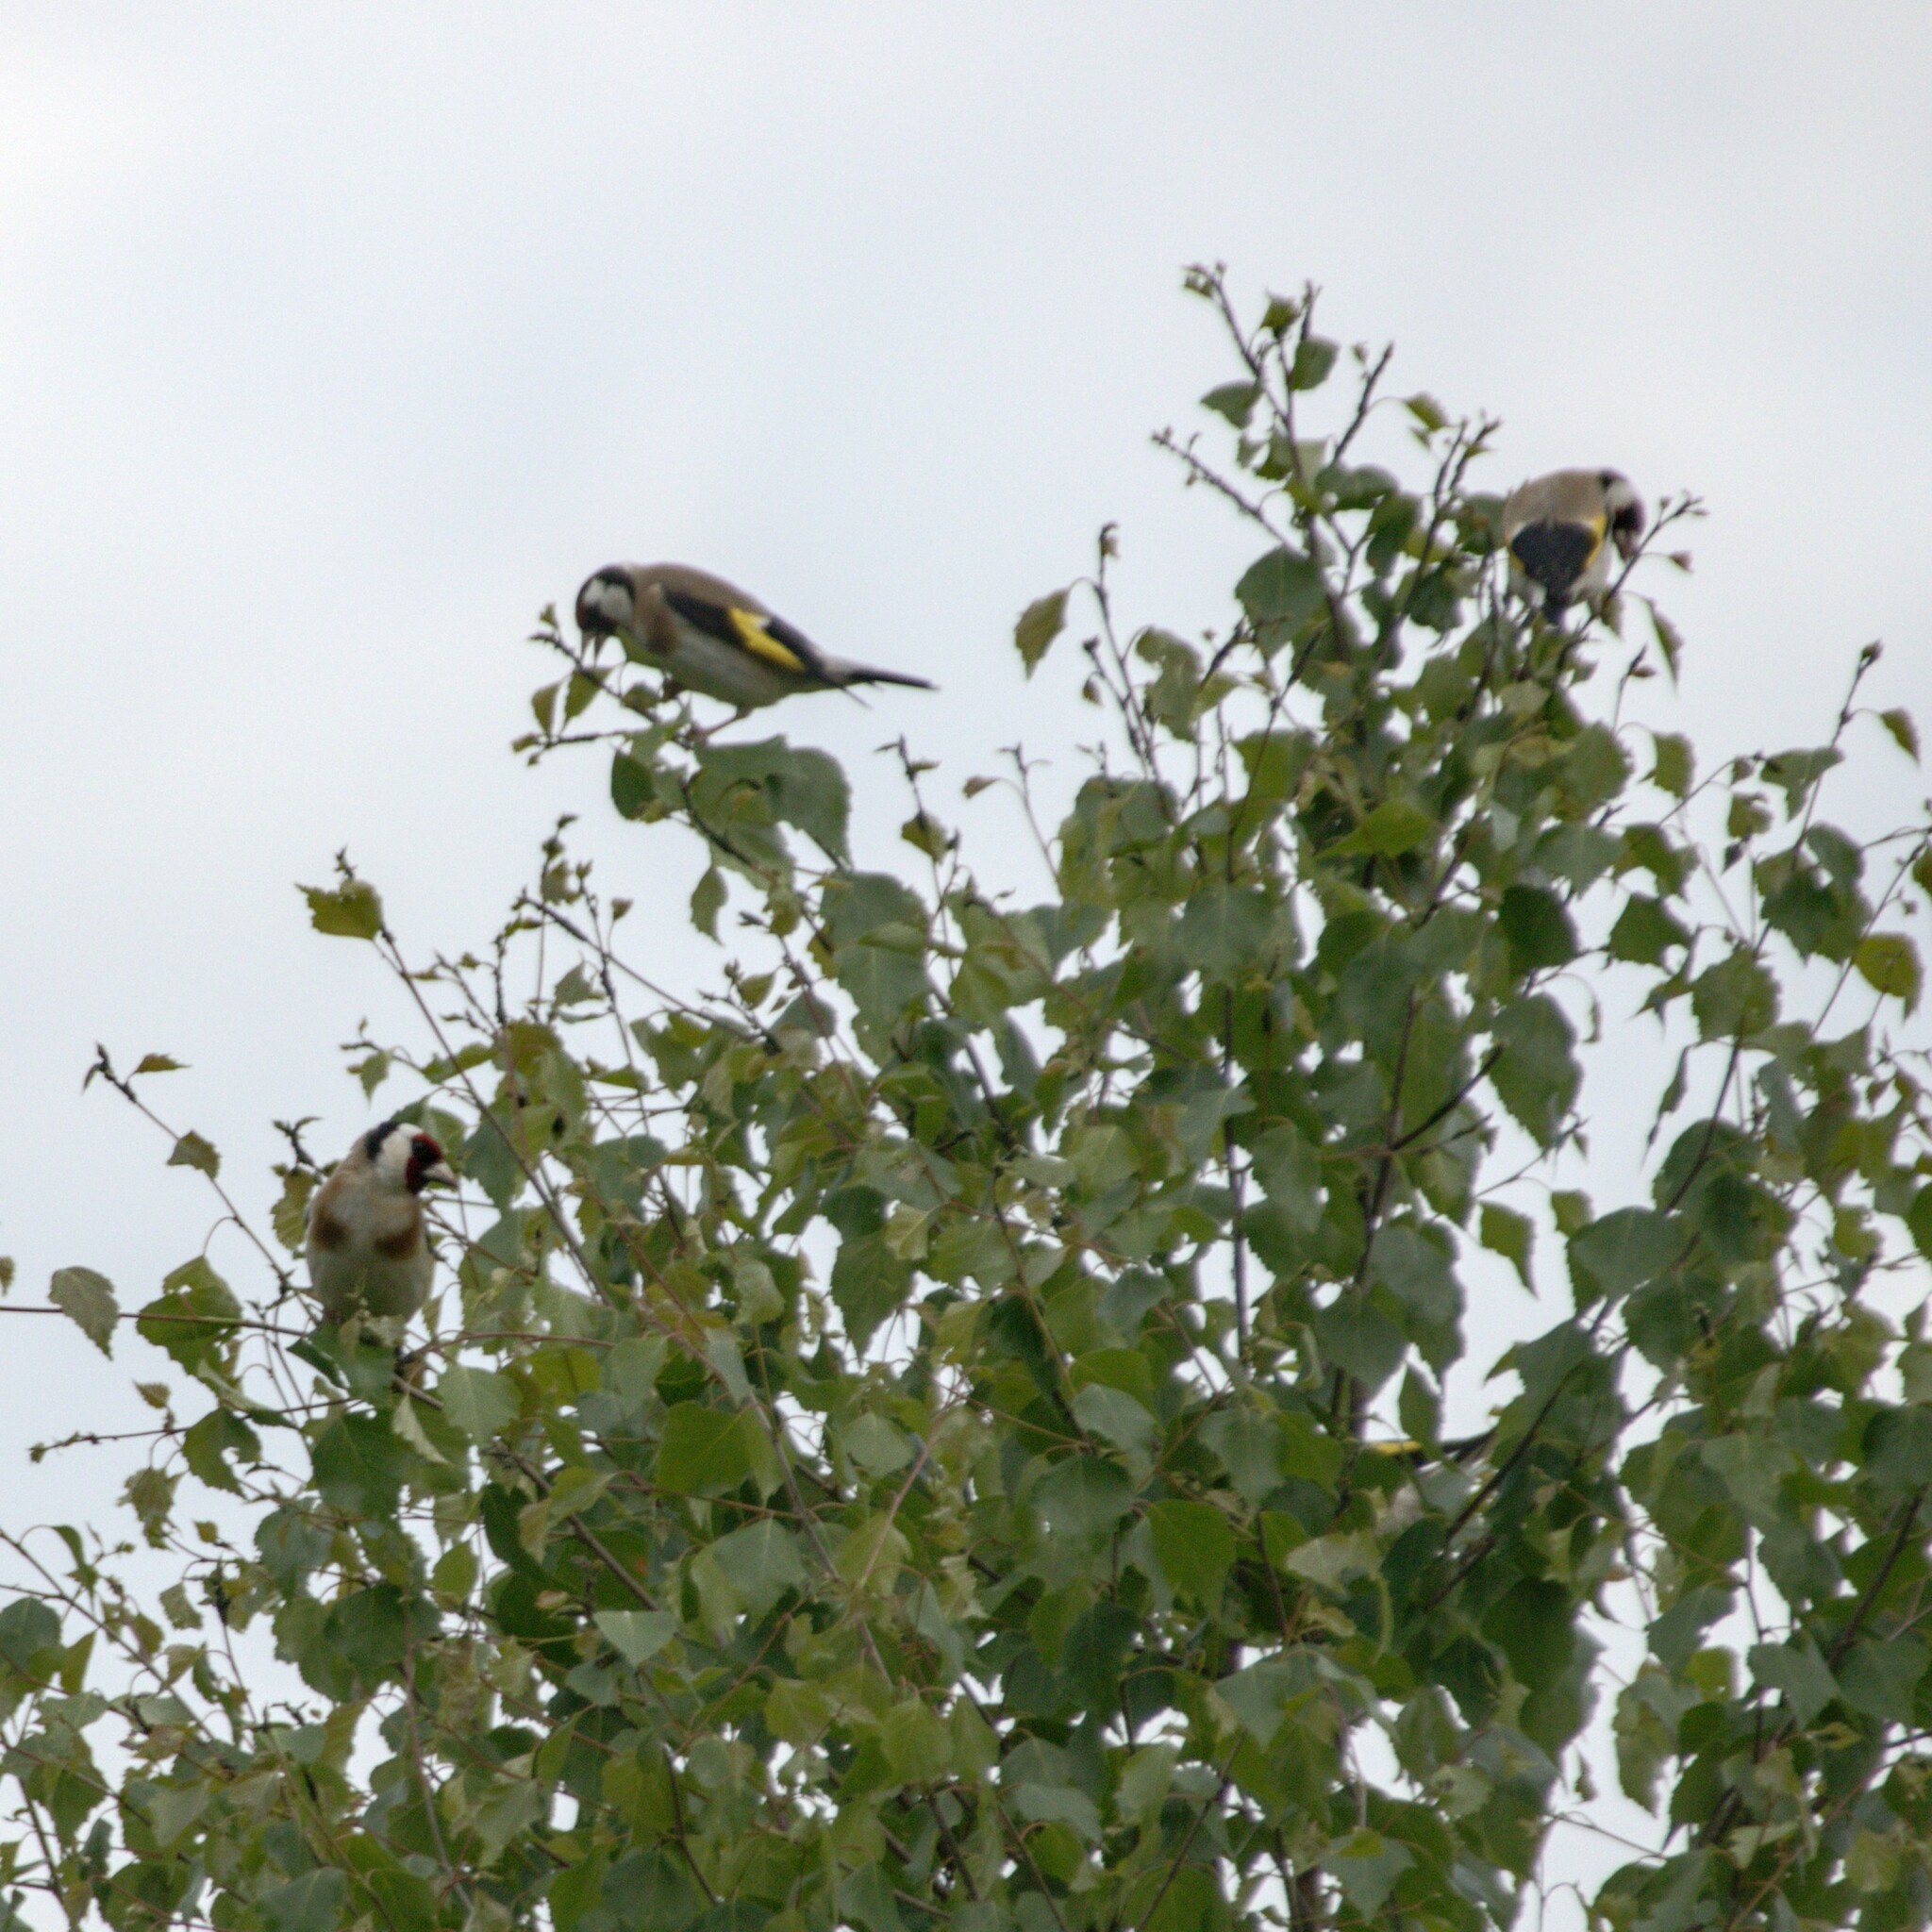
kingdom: Animalia
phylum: Chordata
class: Aves
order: Passeriformes
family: Fringillidae
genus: Carduelis
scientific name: Carduelis carduelis
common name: European goldfinch
